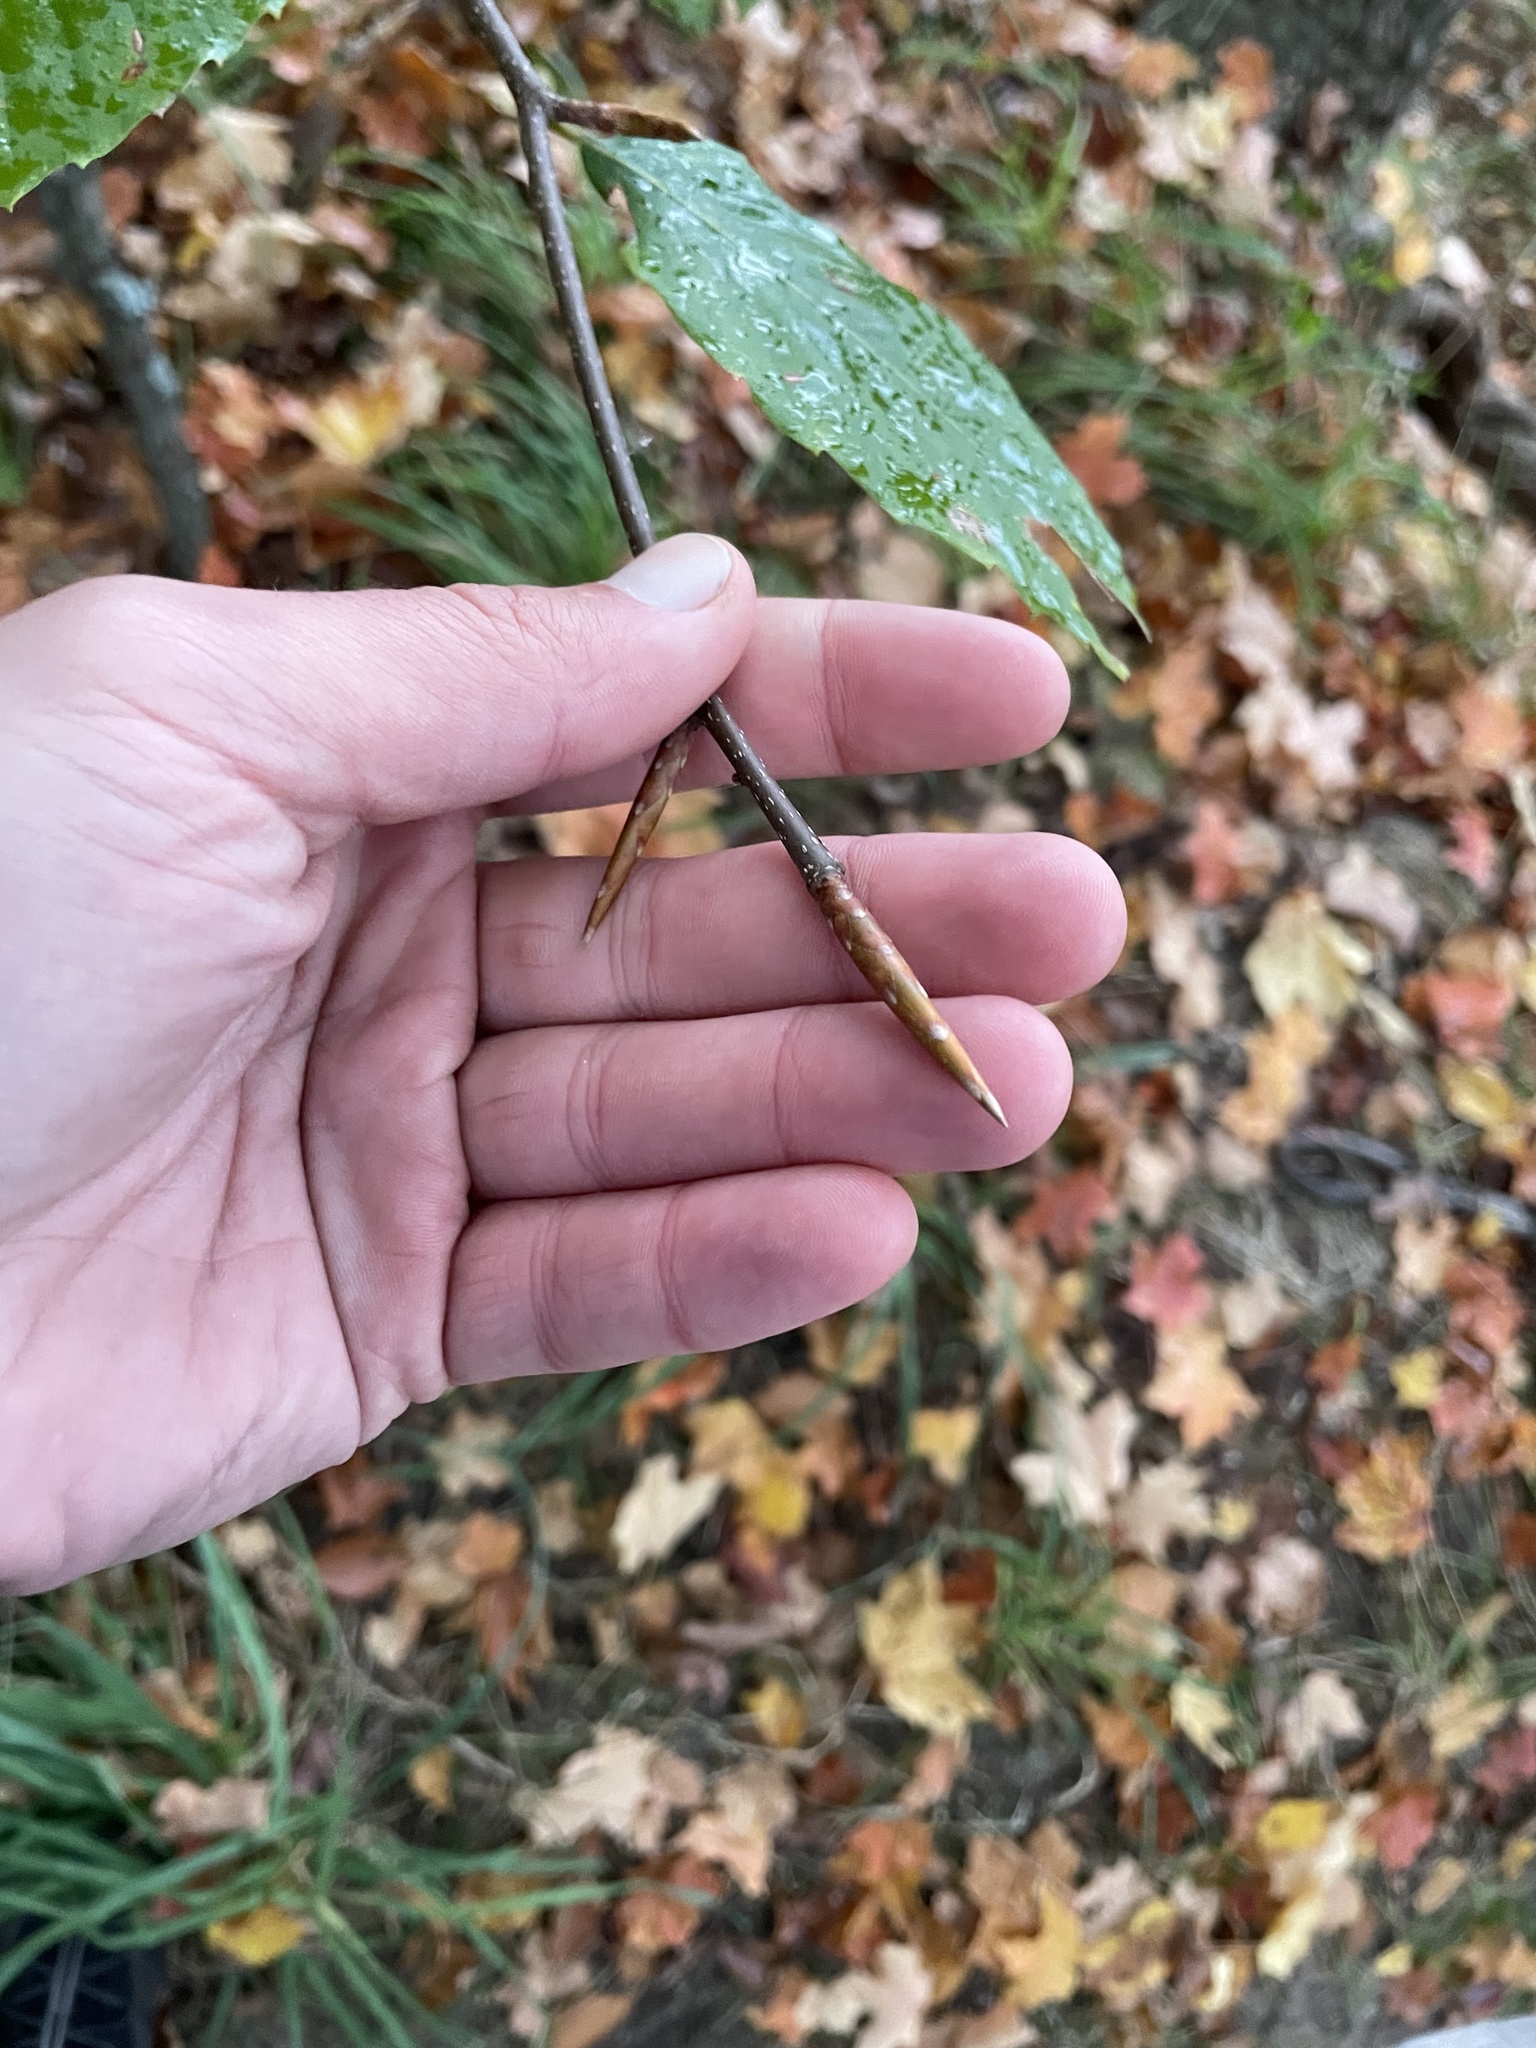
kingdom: Plantae
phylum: Tracheophyta
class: Magnoliopsida
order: Fagales
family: Fagaceae
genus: Fagus
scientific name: Fagus grandifolia
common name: American beech
